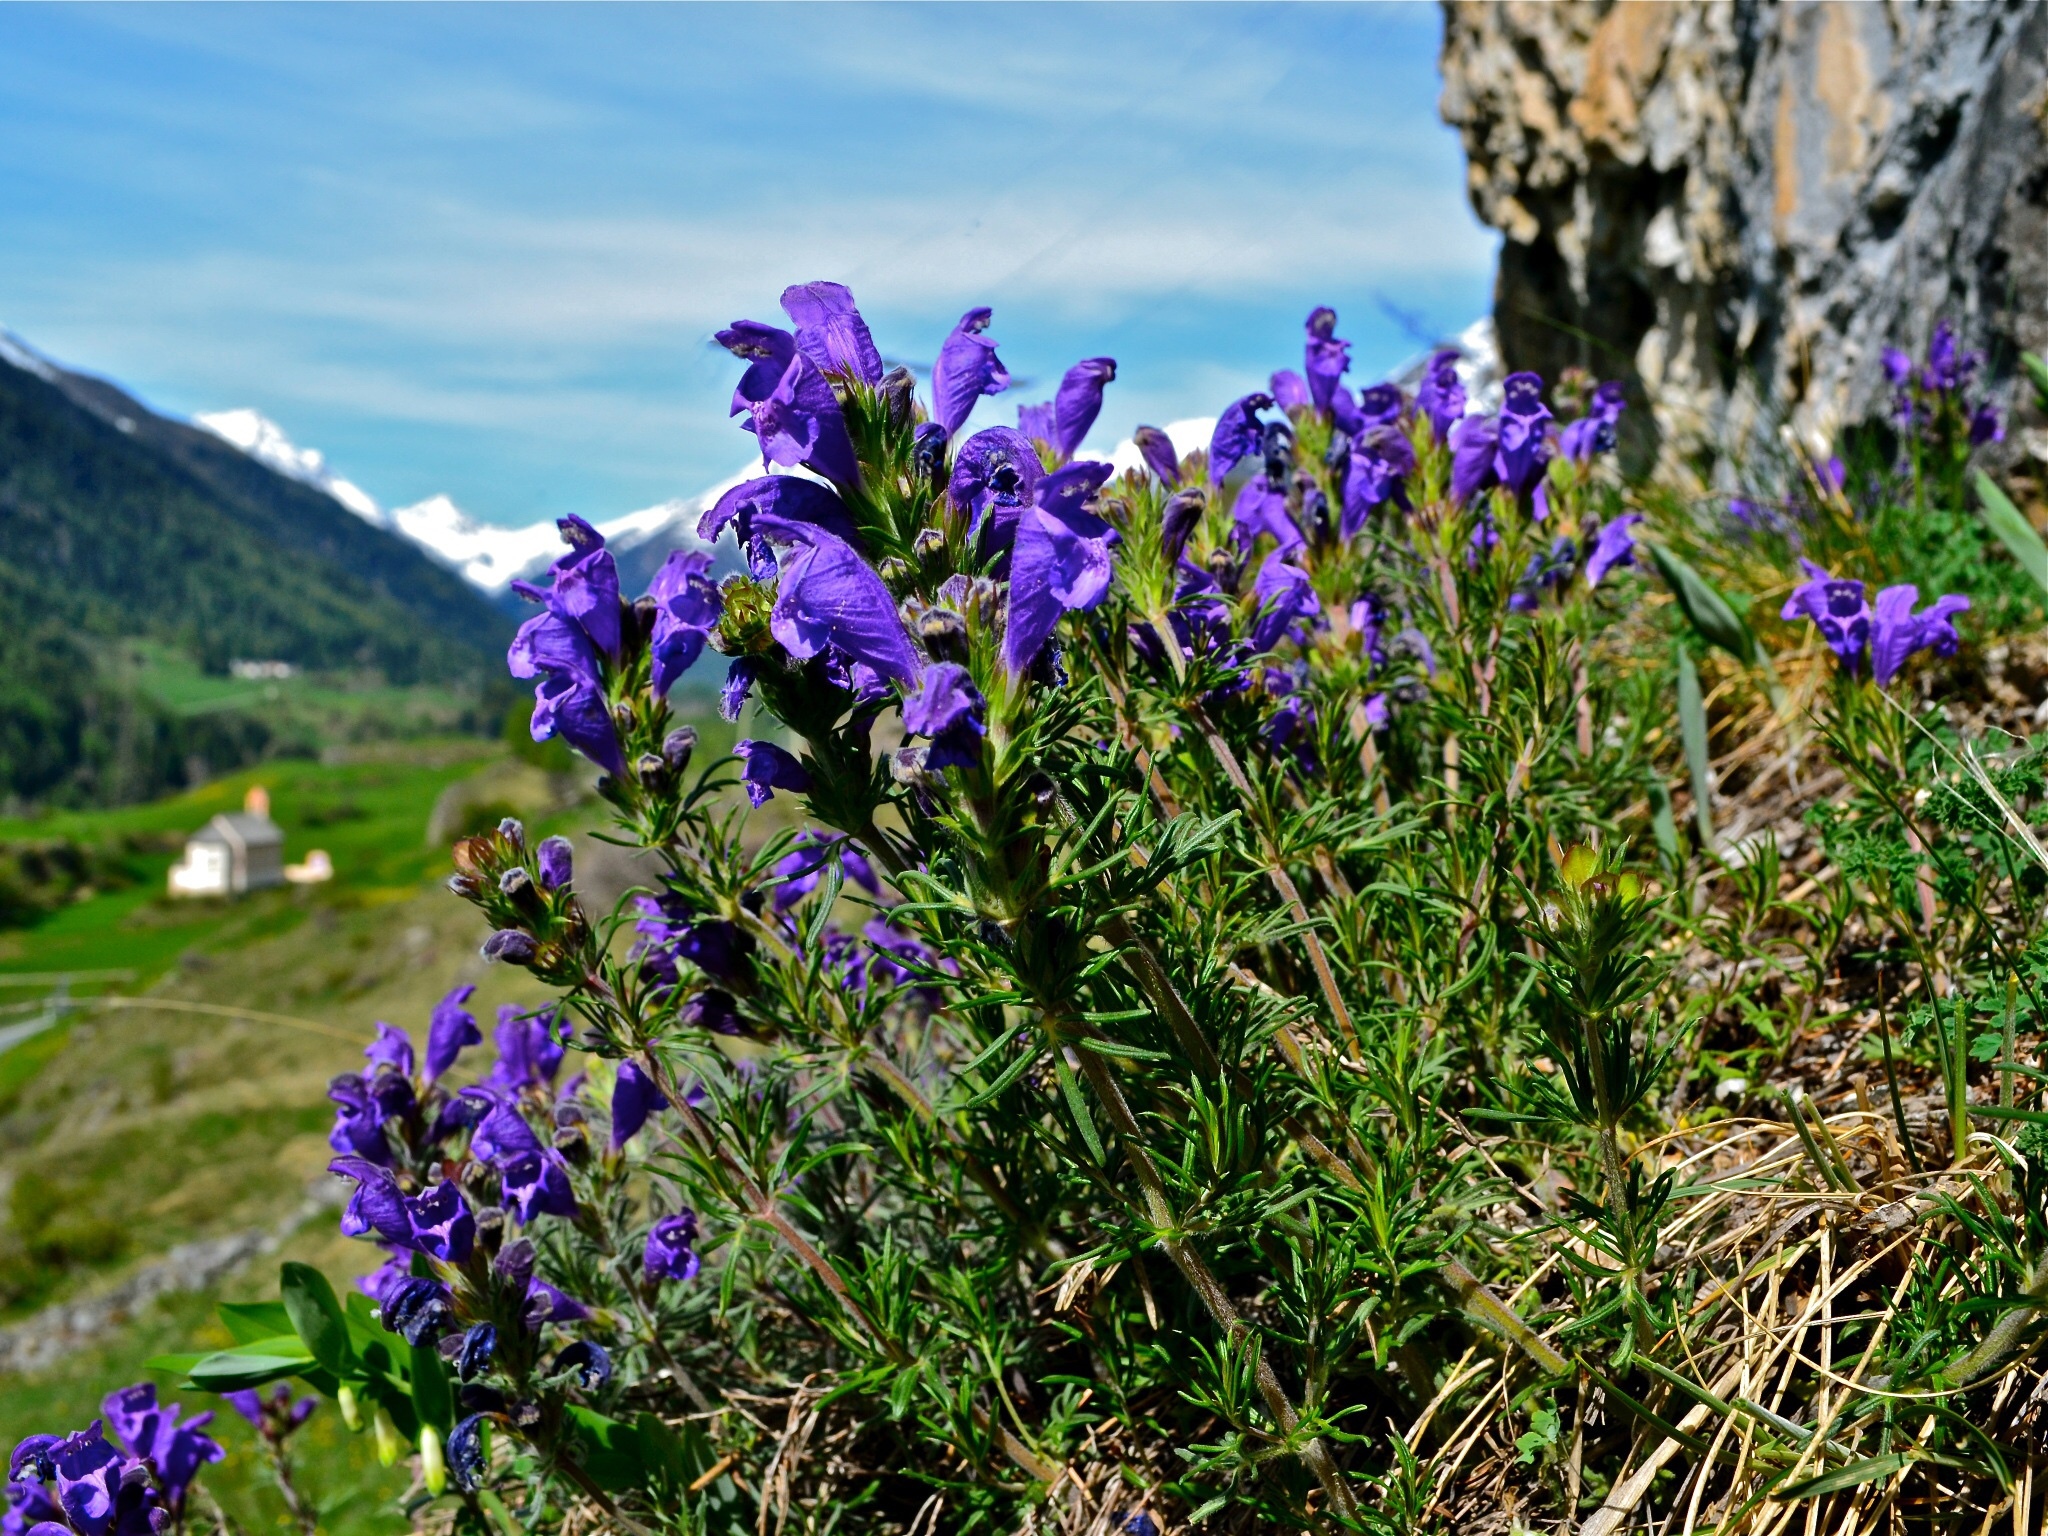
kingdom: Plantae
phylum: Tracheophyta
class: Magnoliopsida
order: Lamiales
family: Lamiaceae
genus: Dracocephalum
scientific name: Dracocephalum austriacum
